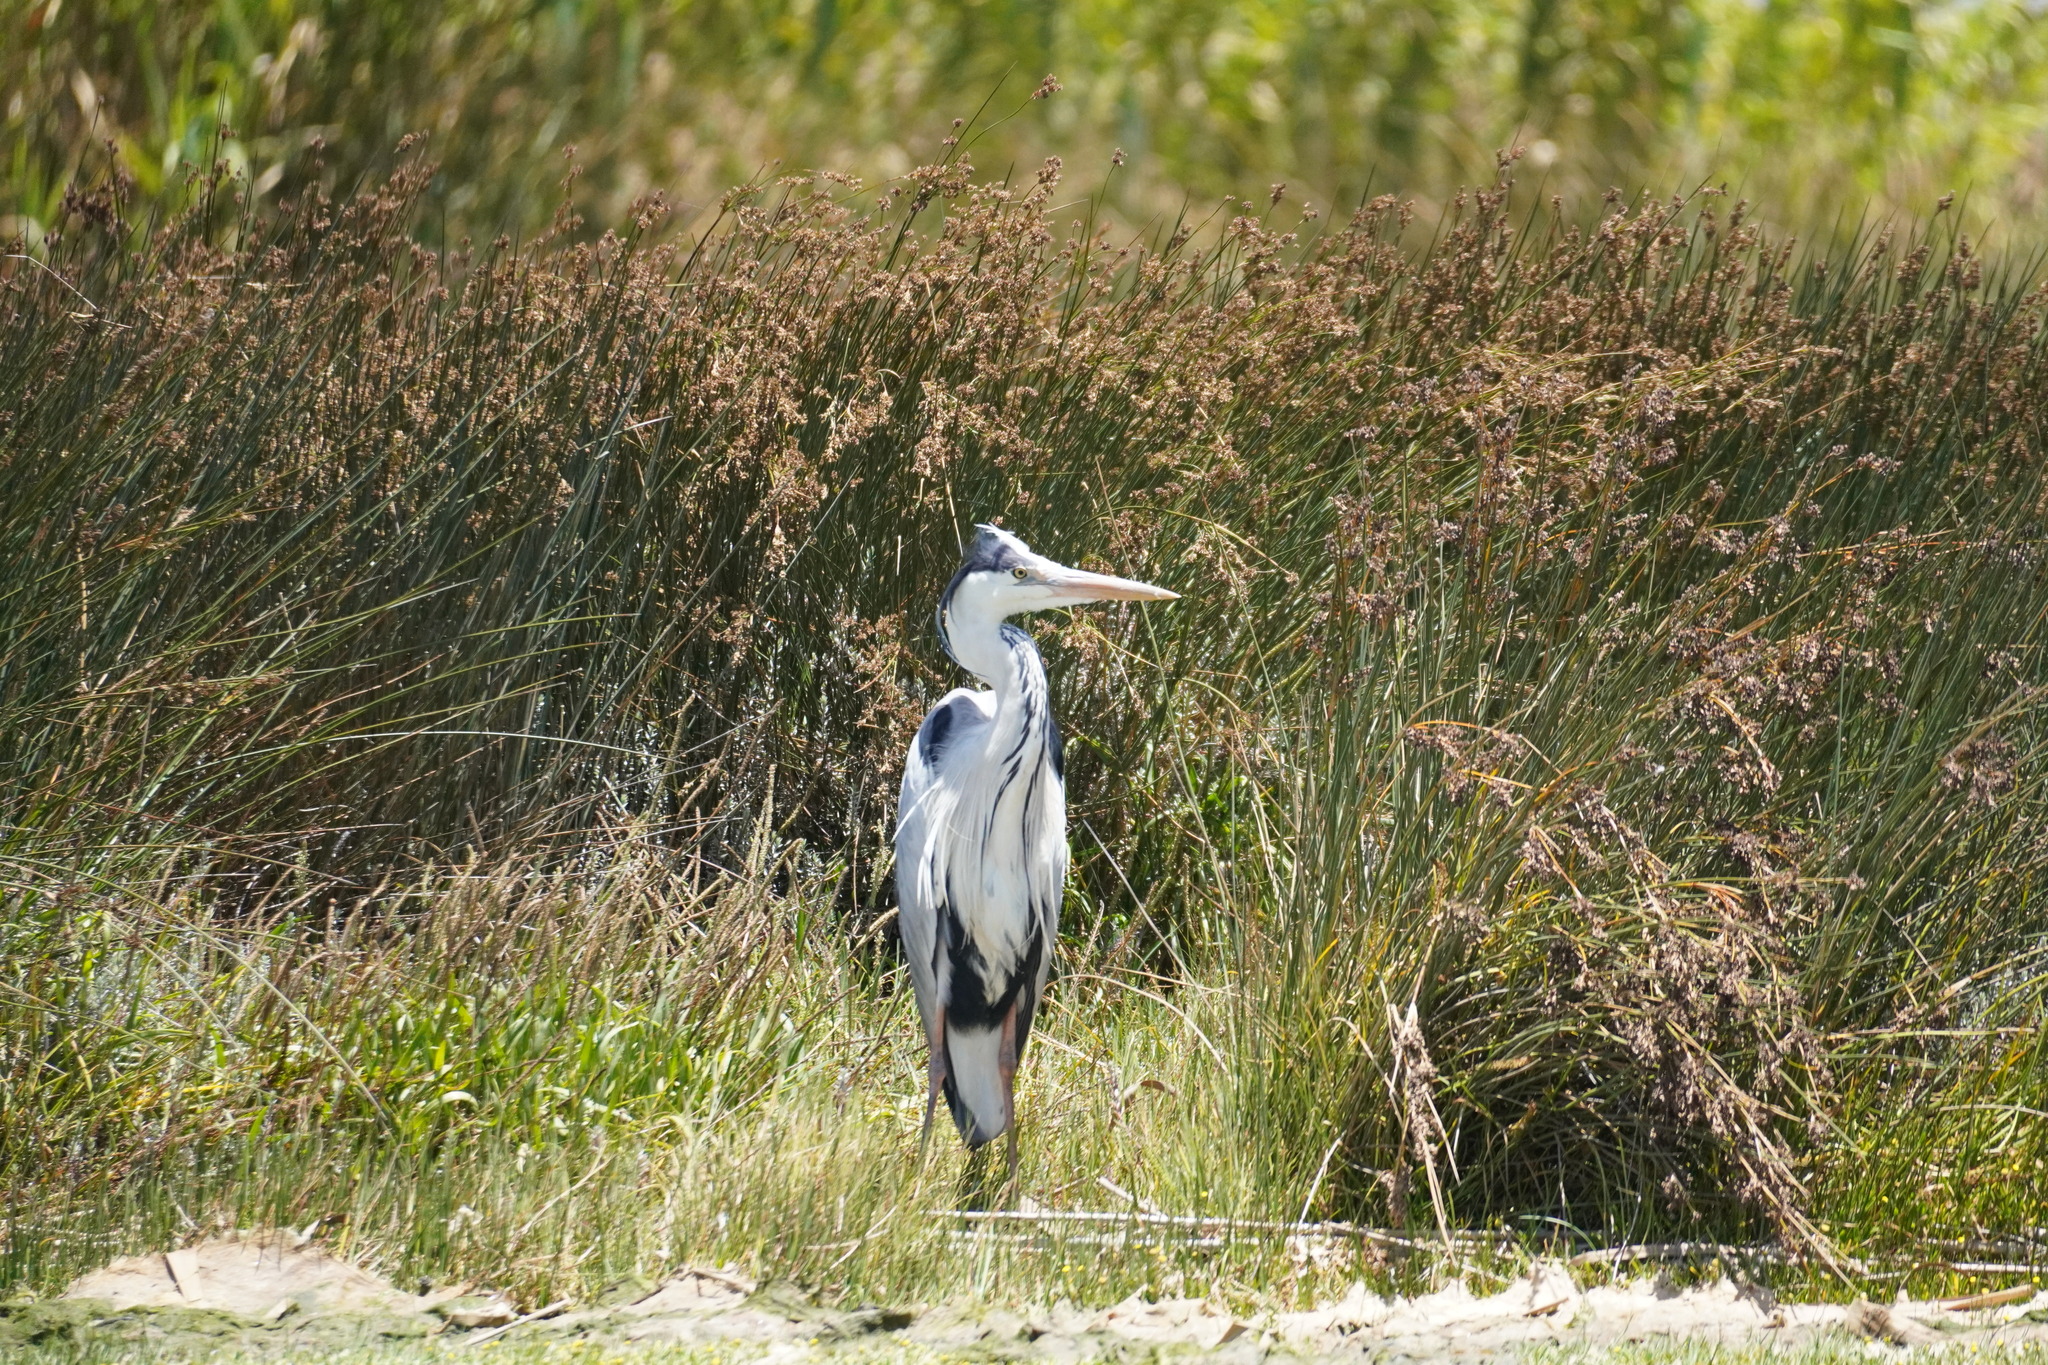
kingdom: Animalia
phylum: Chordata
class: Aves
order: Pelecaniformes
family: Ardeidae
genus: Ardea
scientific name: Ardea cinerea
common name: Grey heron
